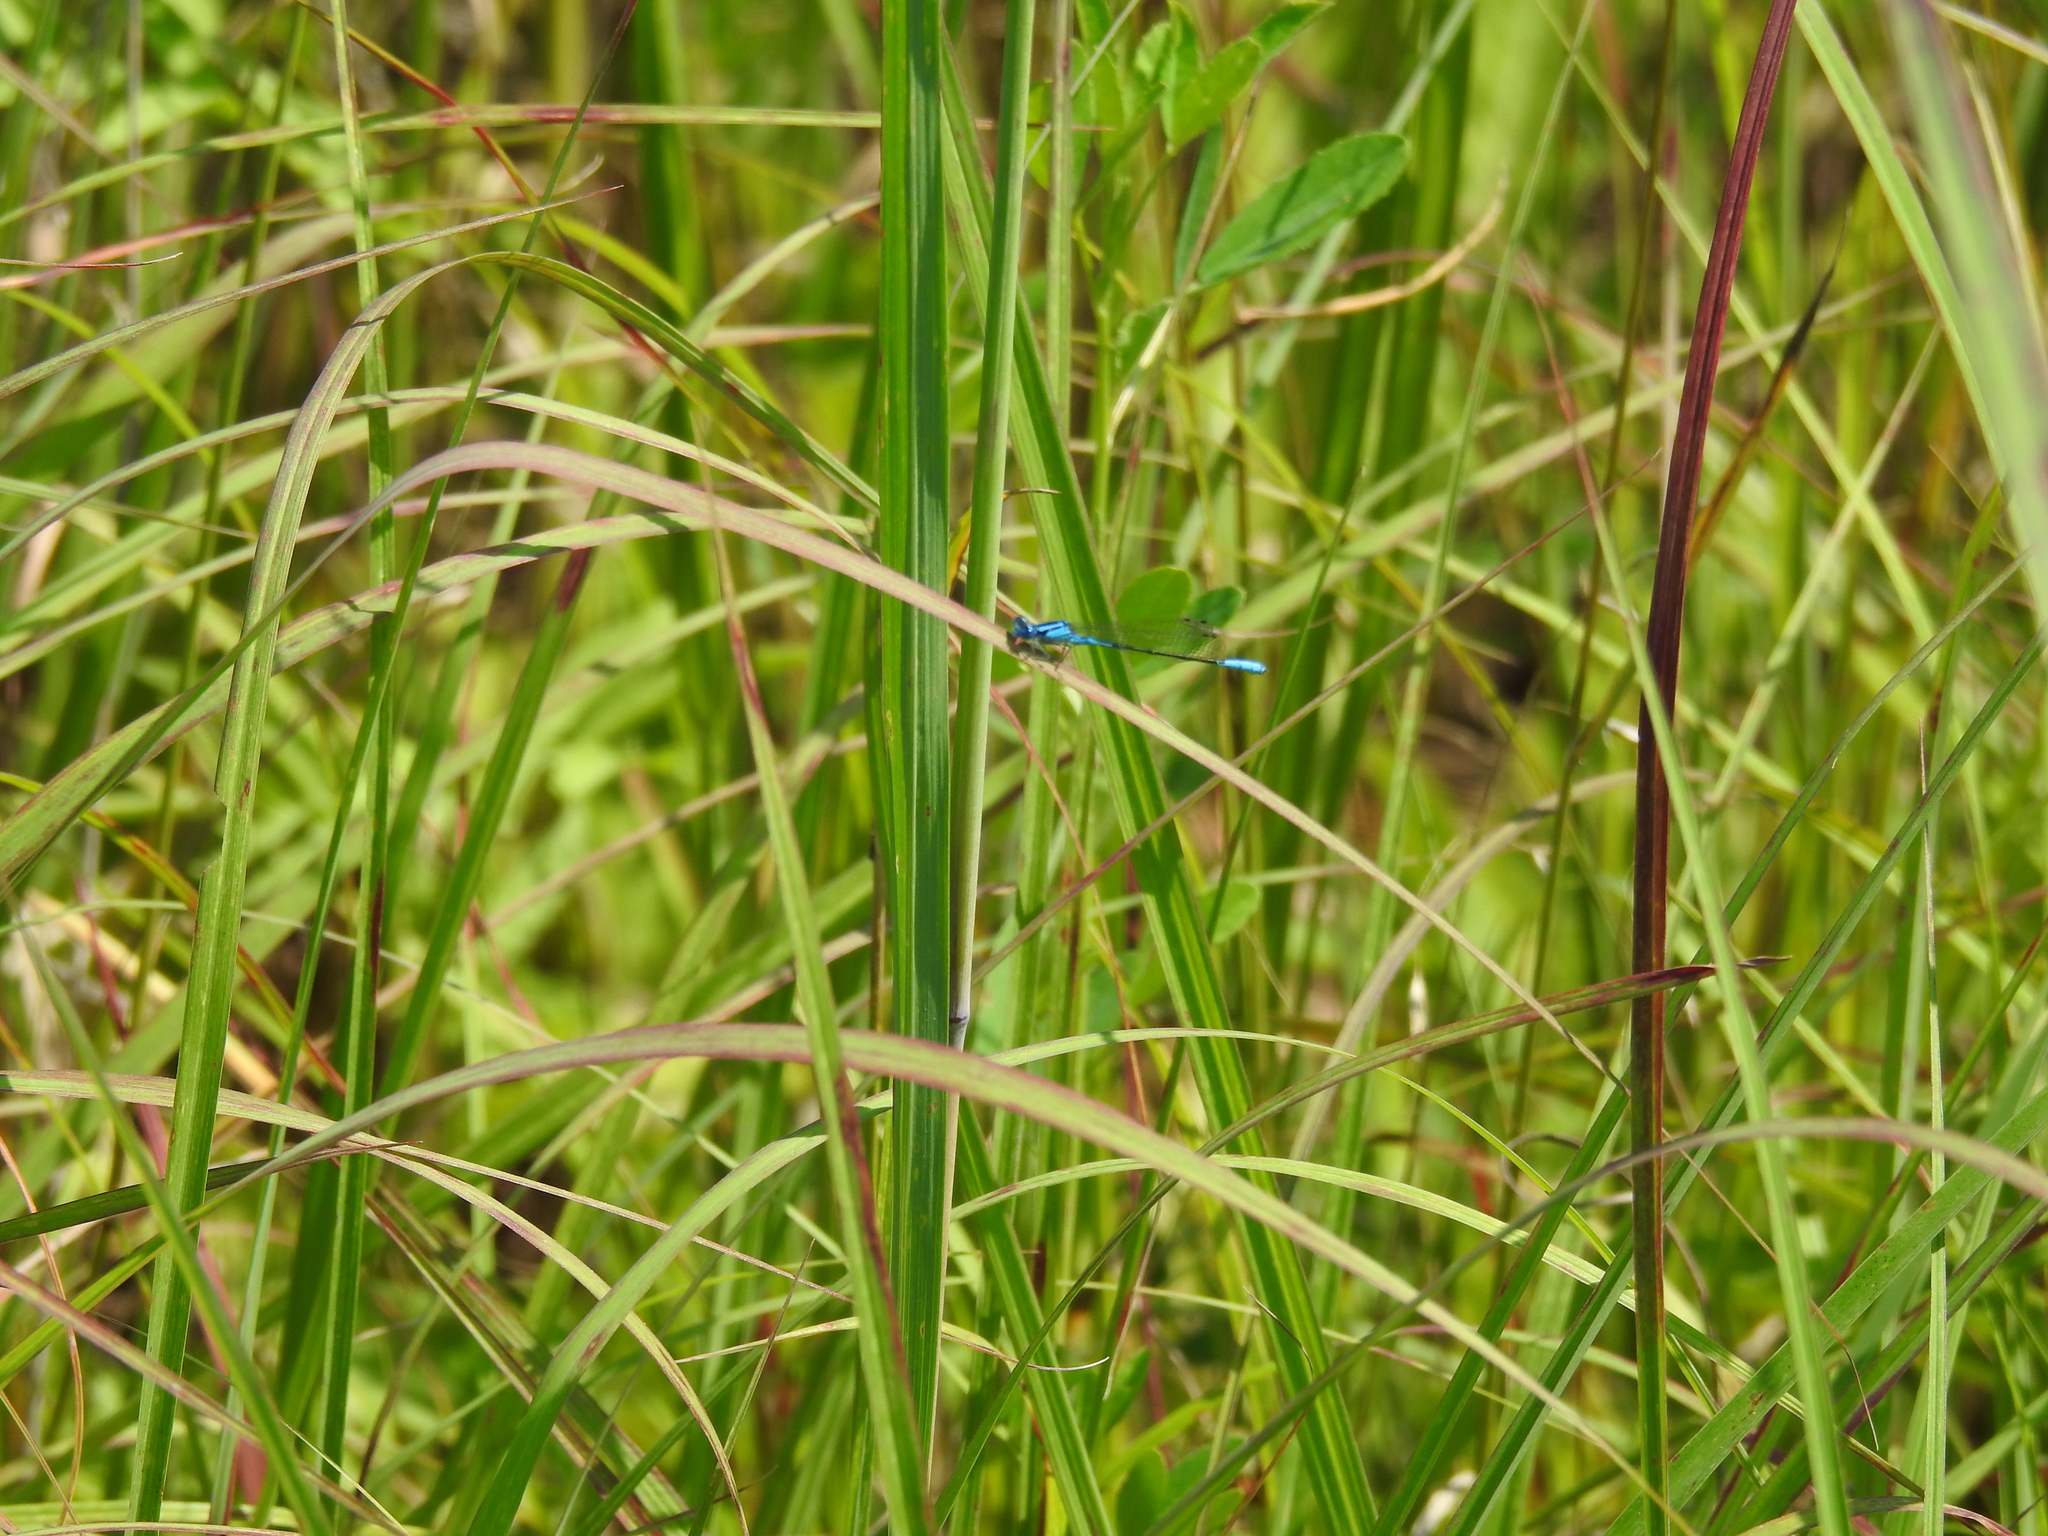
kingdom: Animalia
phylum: Arthropoda
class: Insecta
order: Odonata
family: Coenagrionidae
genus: Enallagma
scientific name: Enallagma aspersum
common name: Azure bluet
